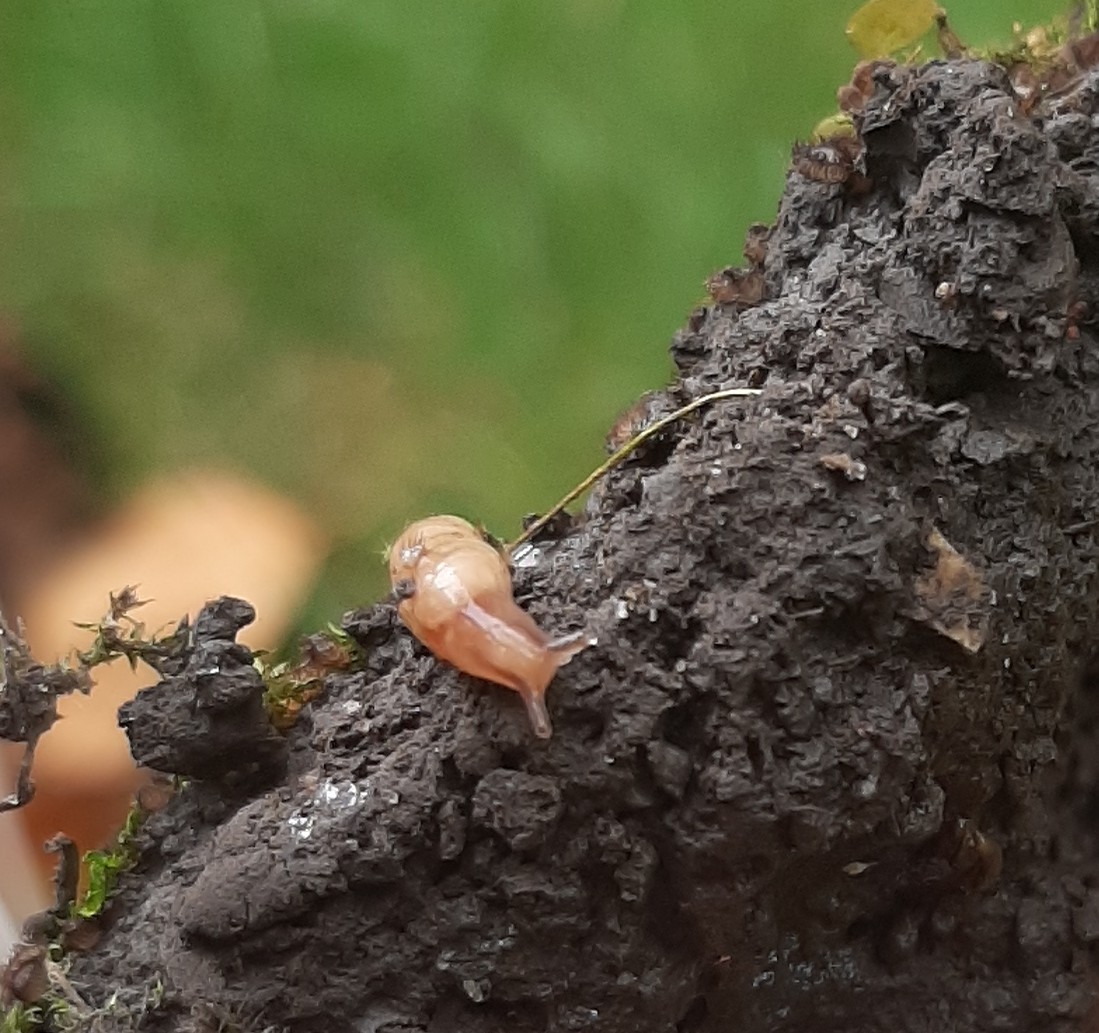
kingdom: Animalia
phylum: Mollusca
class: Gastropoda
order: Stylommatophora
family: Agriolimacidae
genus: Deroceras
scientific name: Deroceras reticulatum
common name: Gray field slug
